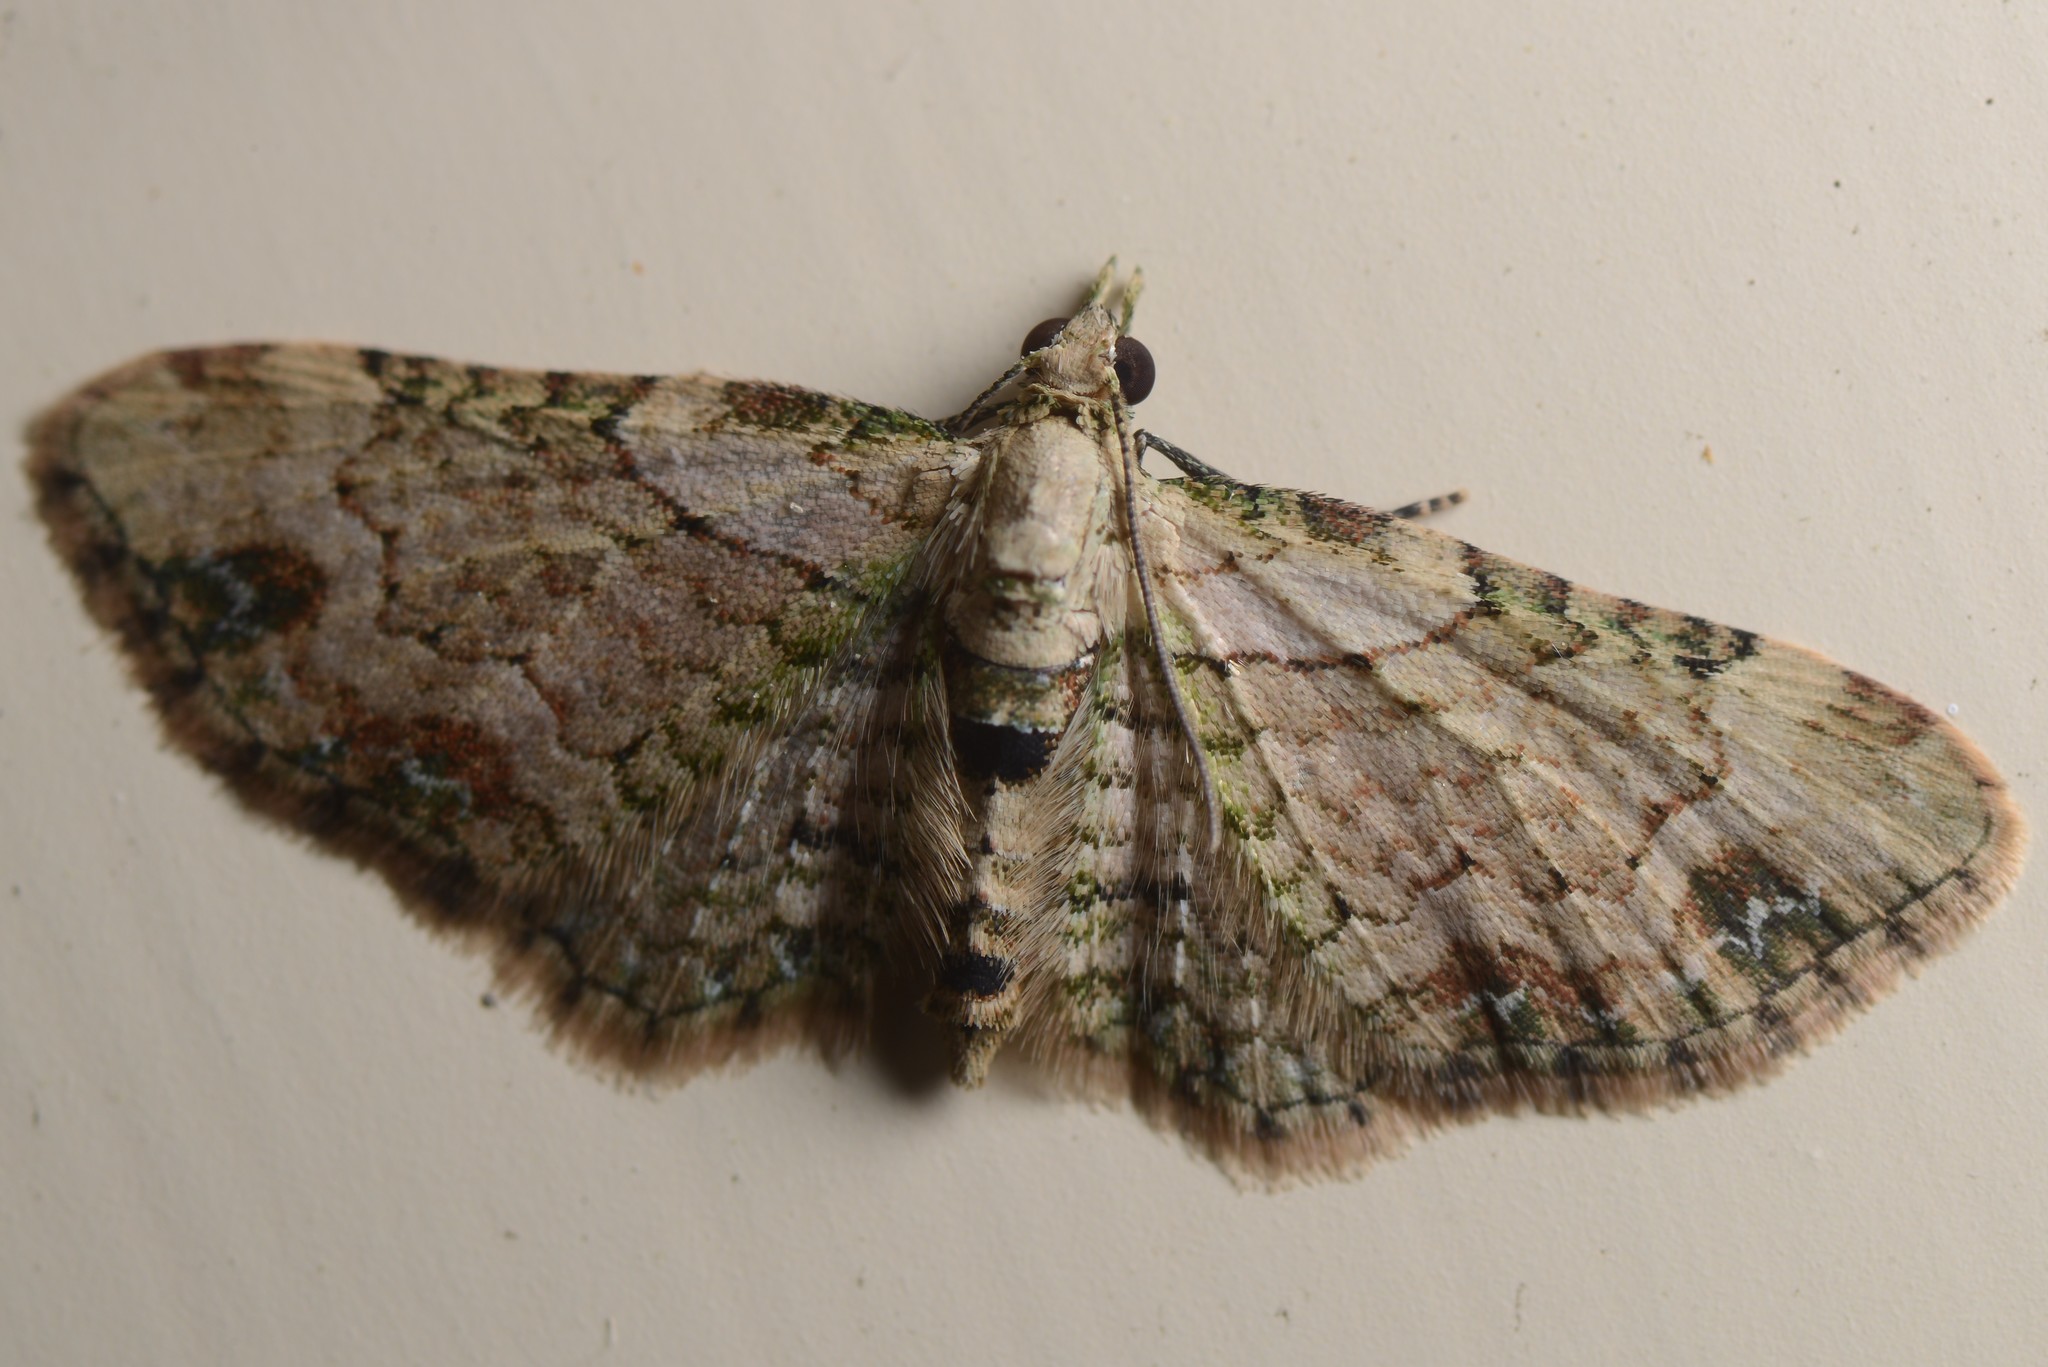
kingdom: Animalia
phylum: Arthropoda
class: Insecta
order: Lepidoptera
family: Geometridae
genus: Chloroclystis
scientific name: Chloroclystis
